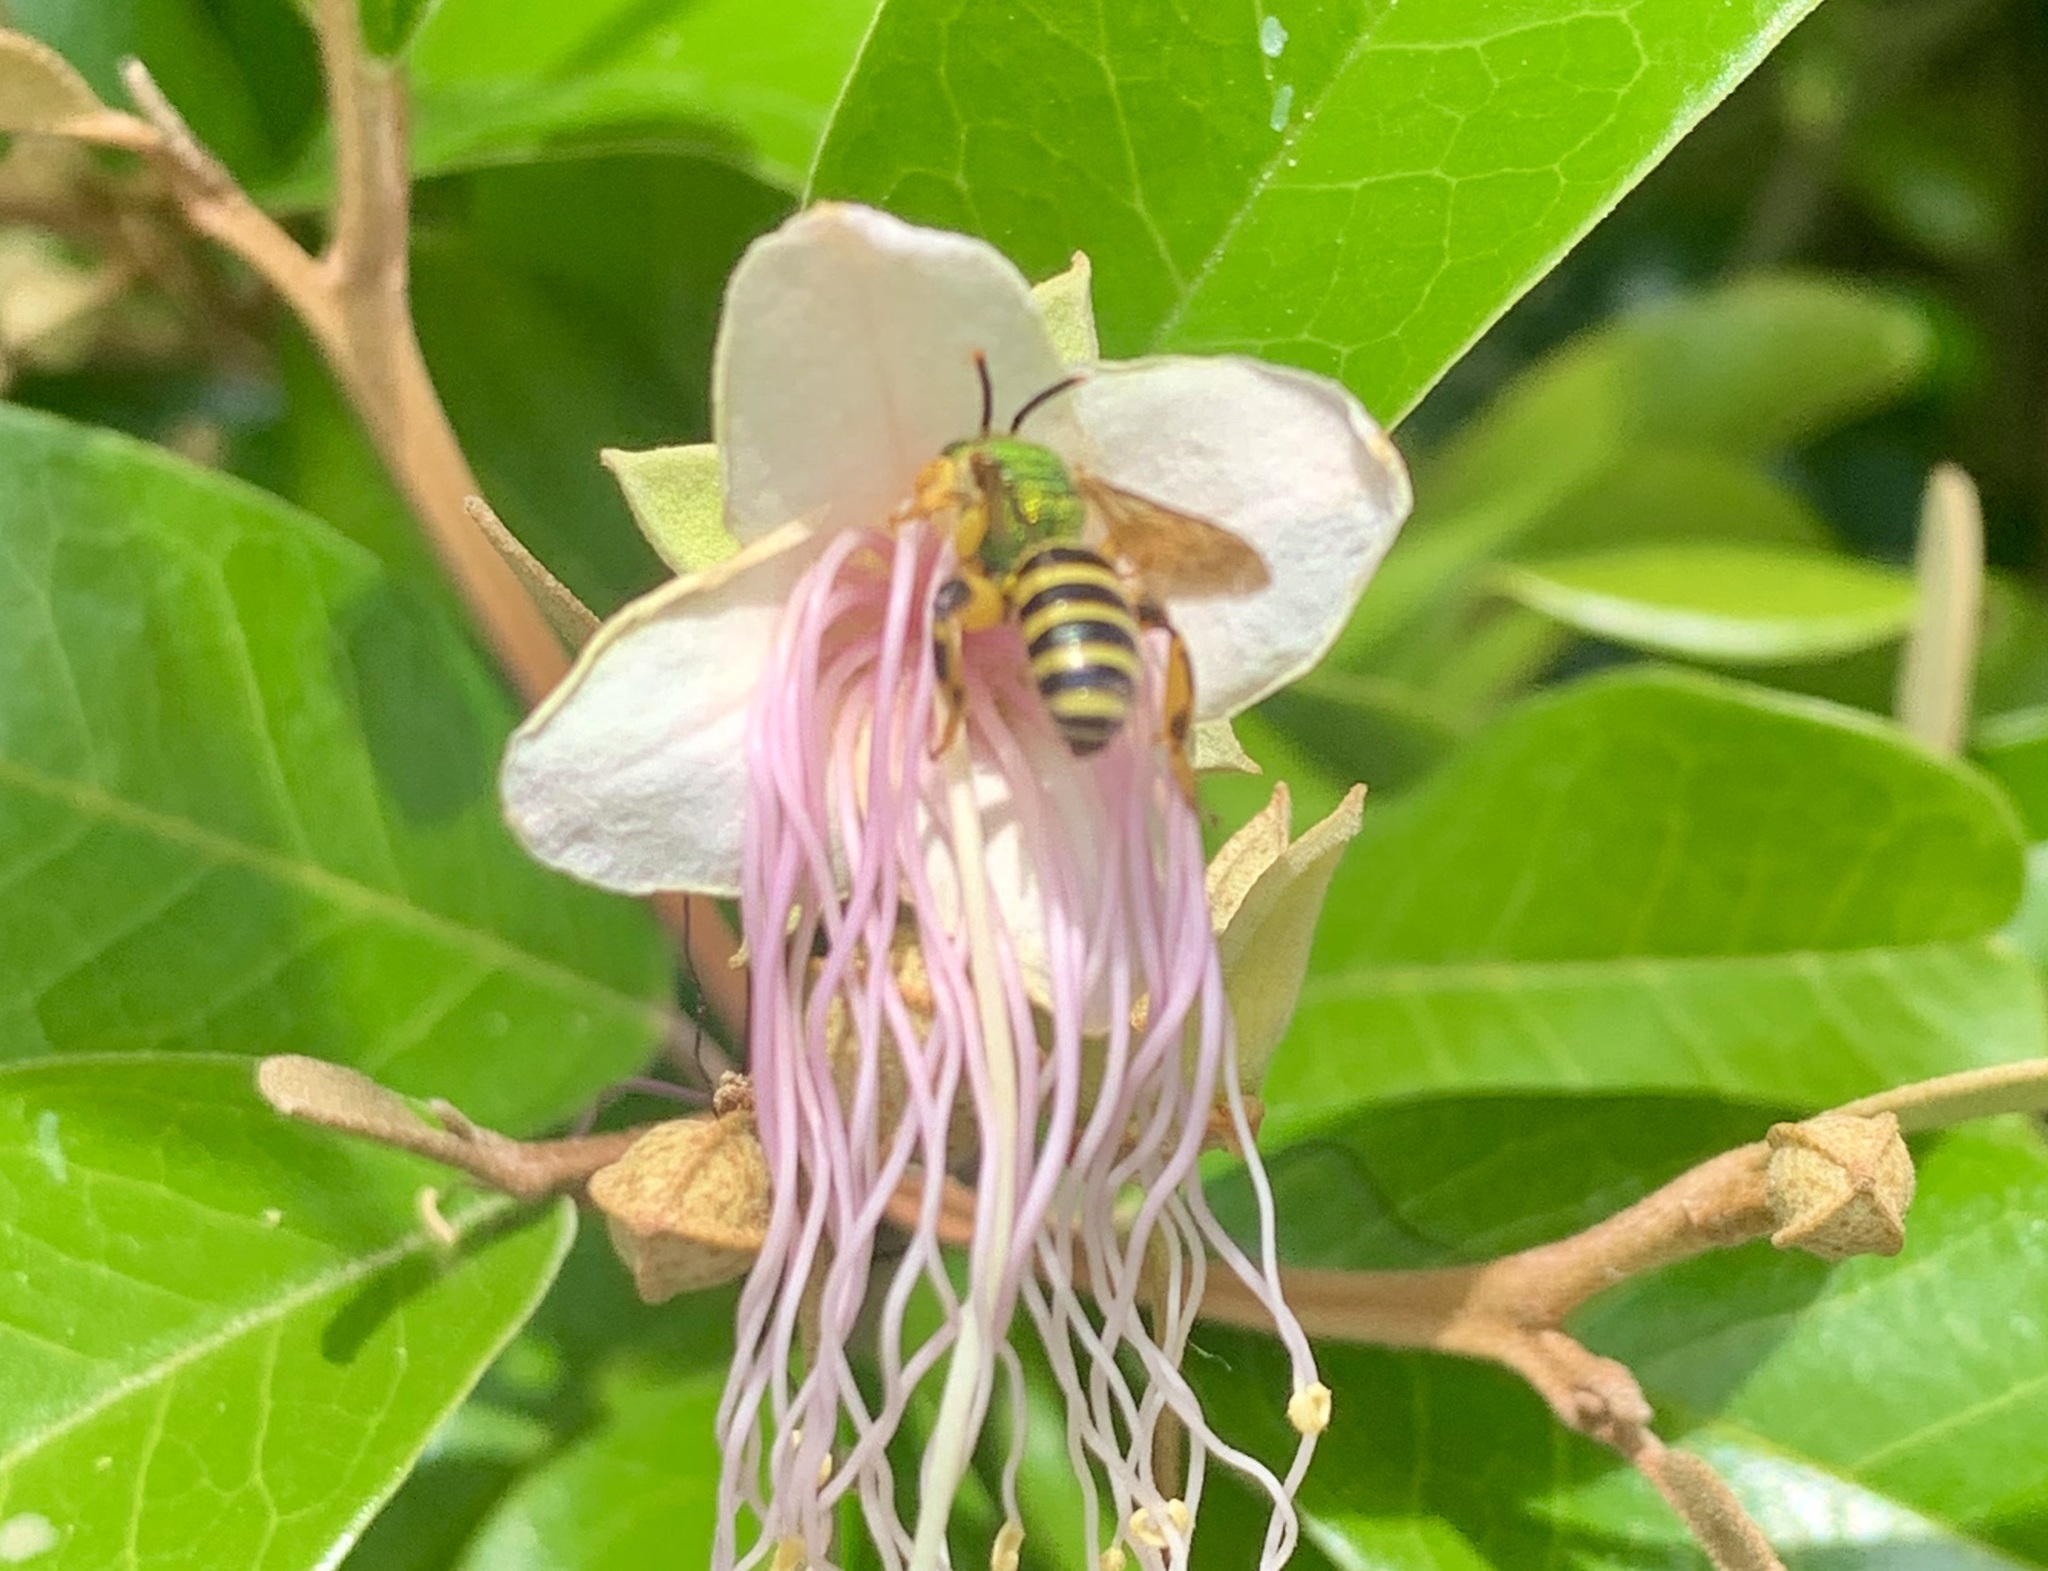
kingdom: Animalia
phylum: Arthropoda
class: Insecta
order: Hymenoptera
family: Halictidae
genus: Agapostemon
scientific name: Agapostemon splendens
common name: Brown-winged striped sweat bee
